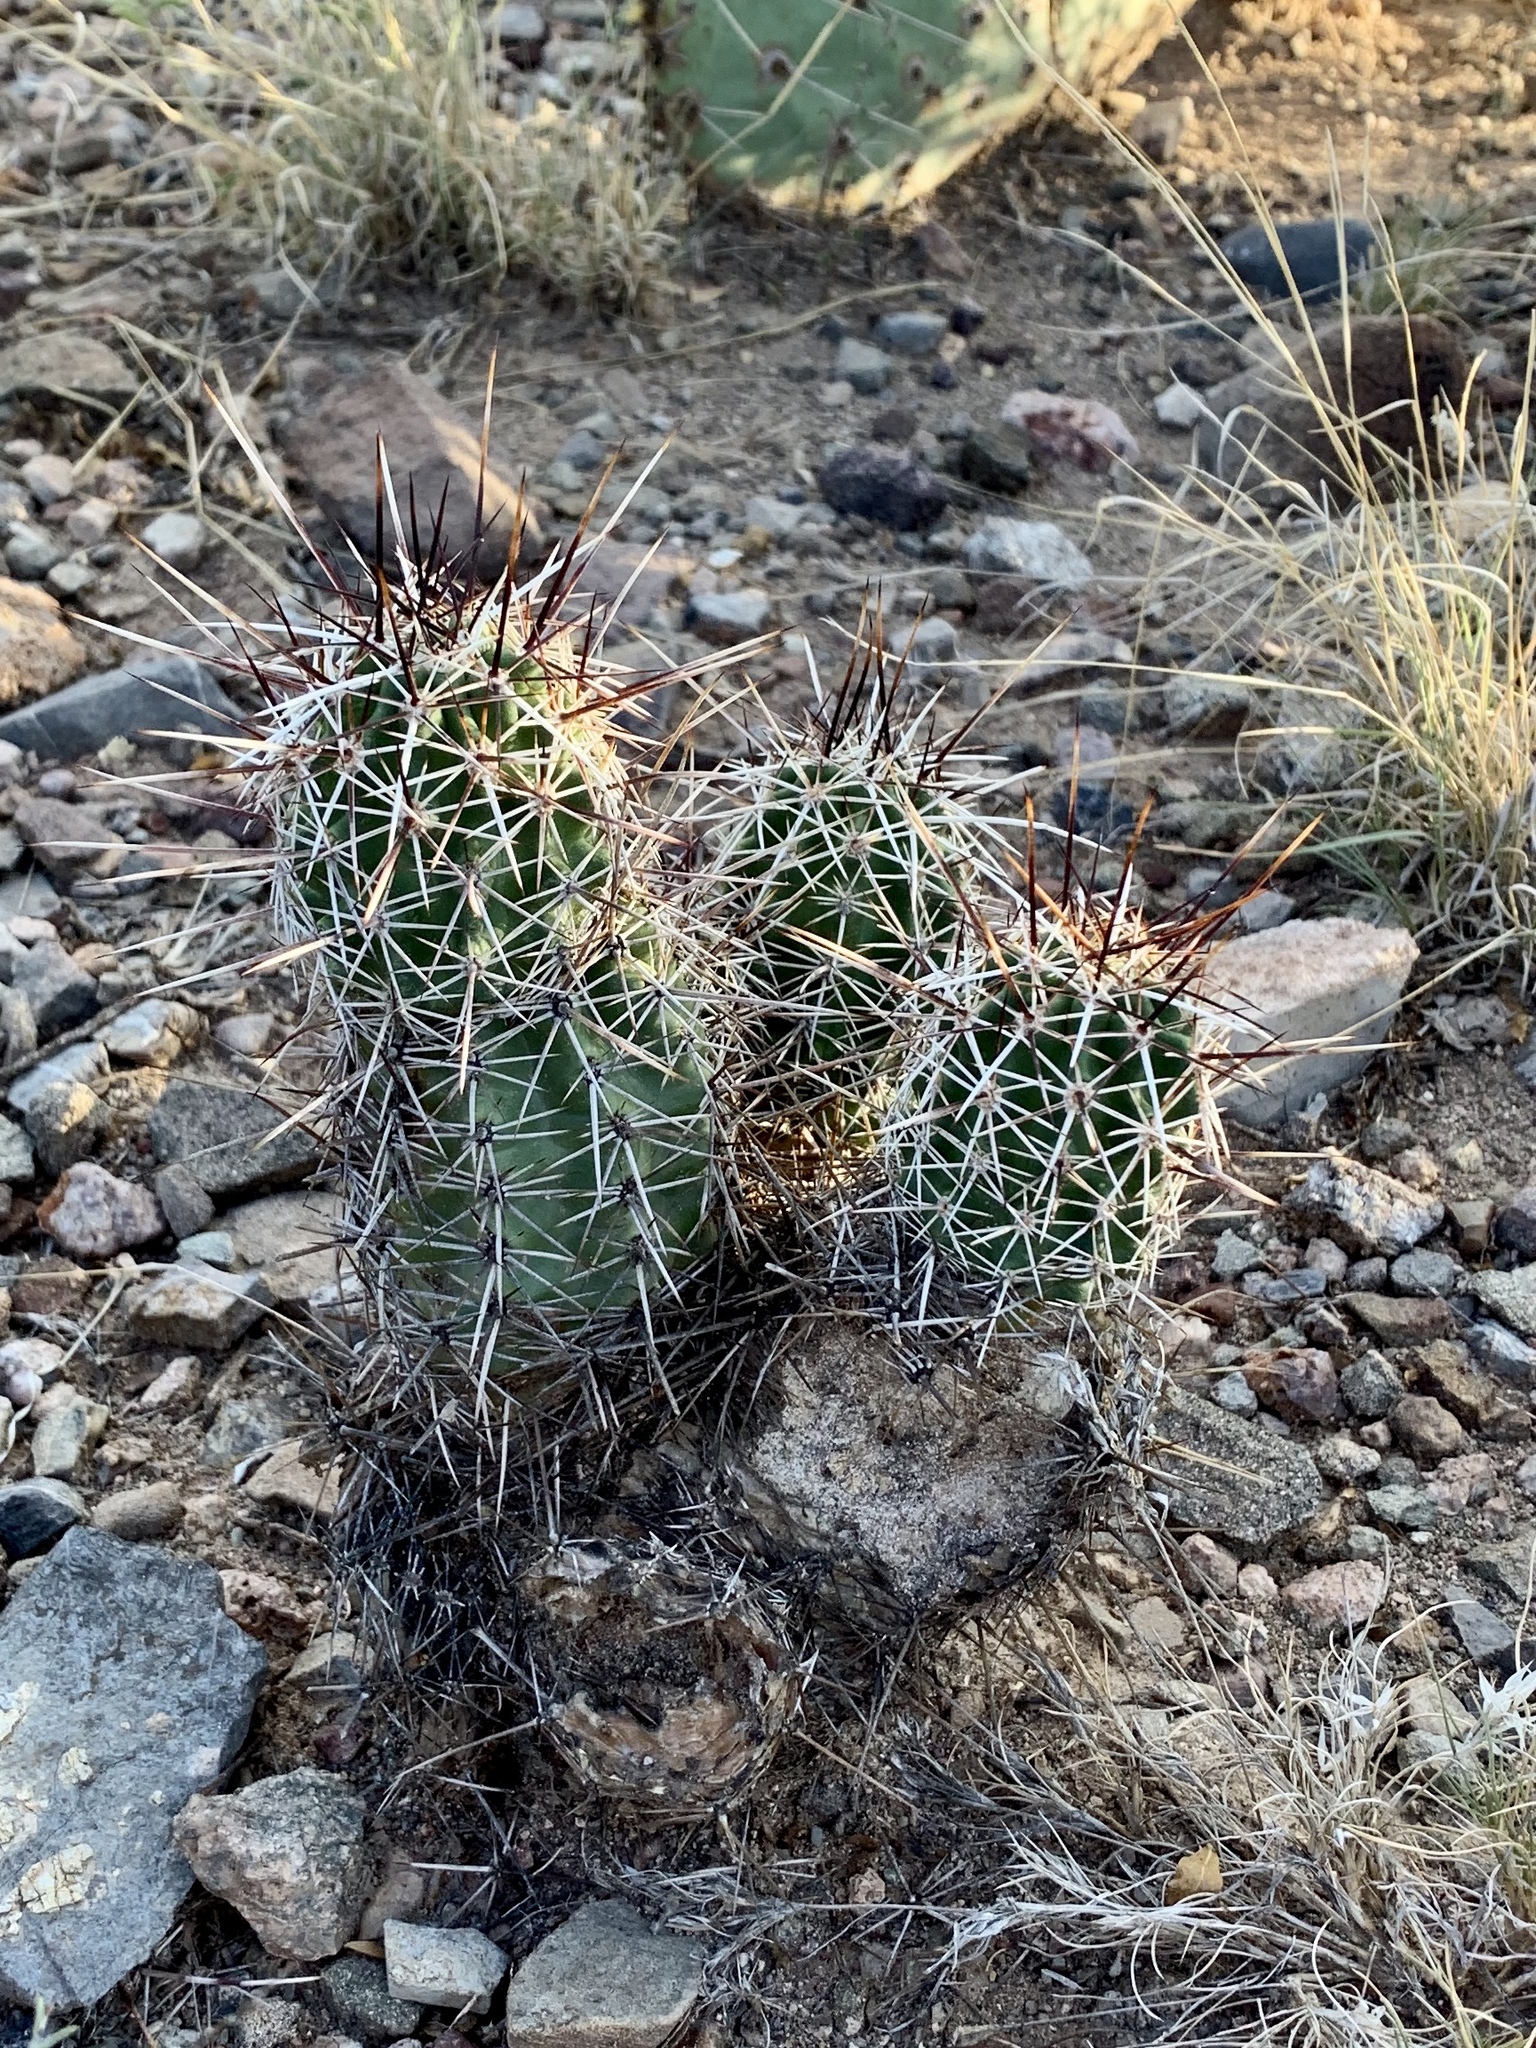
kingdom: Plantae
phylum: Tracheophyta
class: Magnoliopsida
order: Caryophyllales
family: Cactaceae
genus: Echinocereus
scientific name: Echinocereus fasciculatus
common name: Bundle hedgehog
